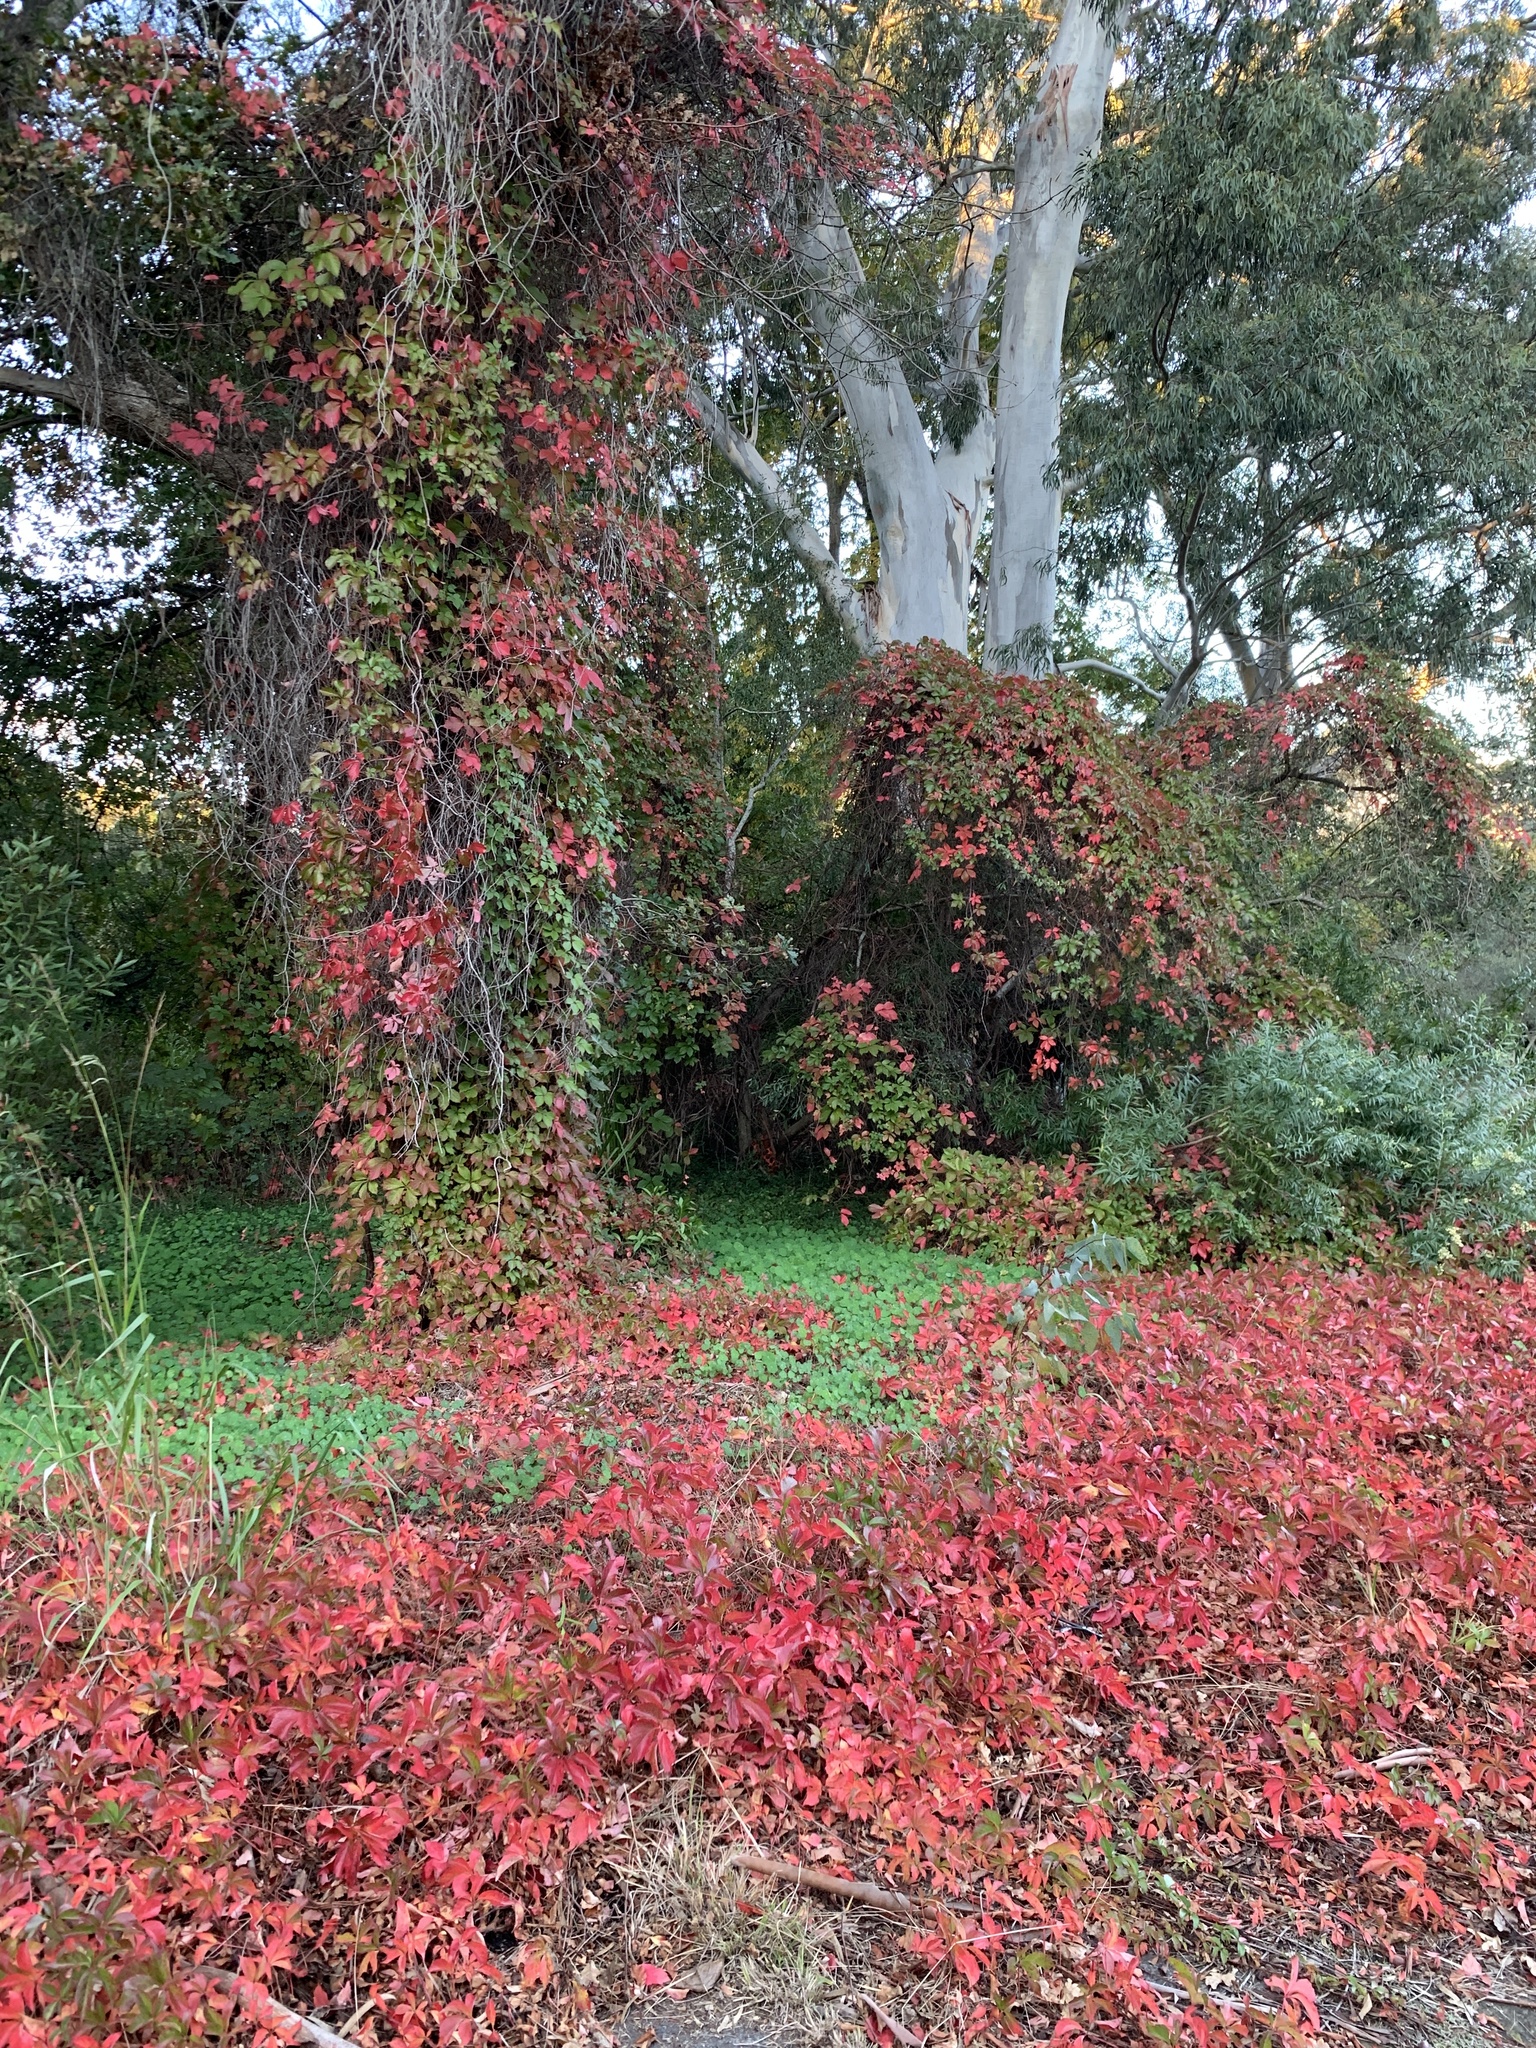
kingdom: Plantae
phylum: Tracheophyta
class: Magnoliopsida
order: Vitales
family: Vitaceae
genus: Parthenocissus
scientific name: Parthenocissus quinquefolia
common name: Virginia-creeper
